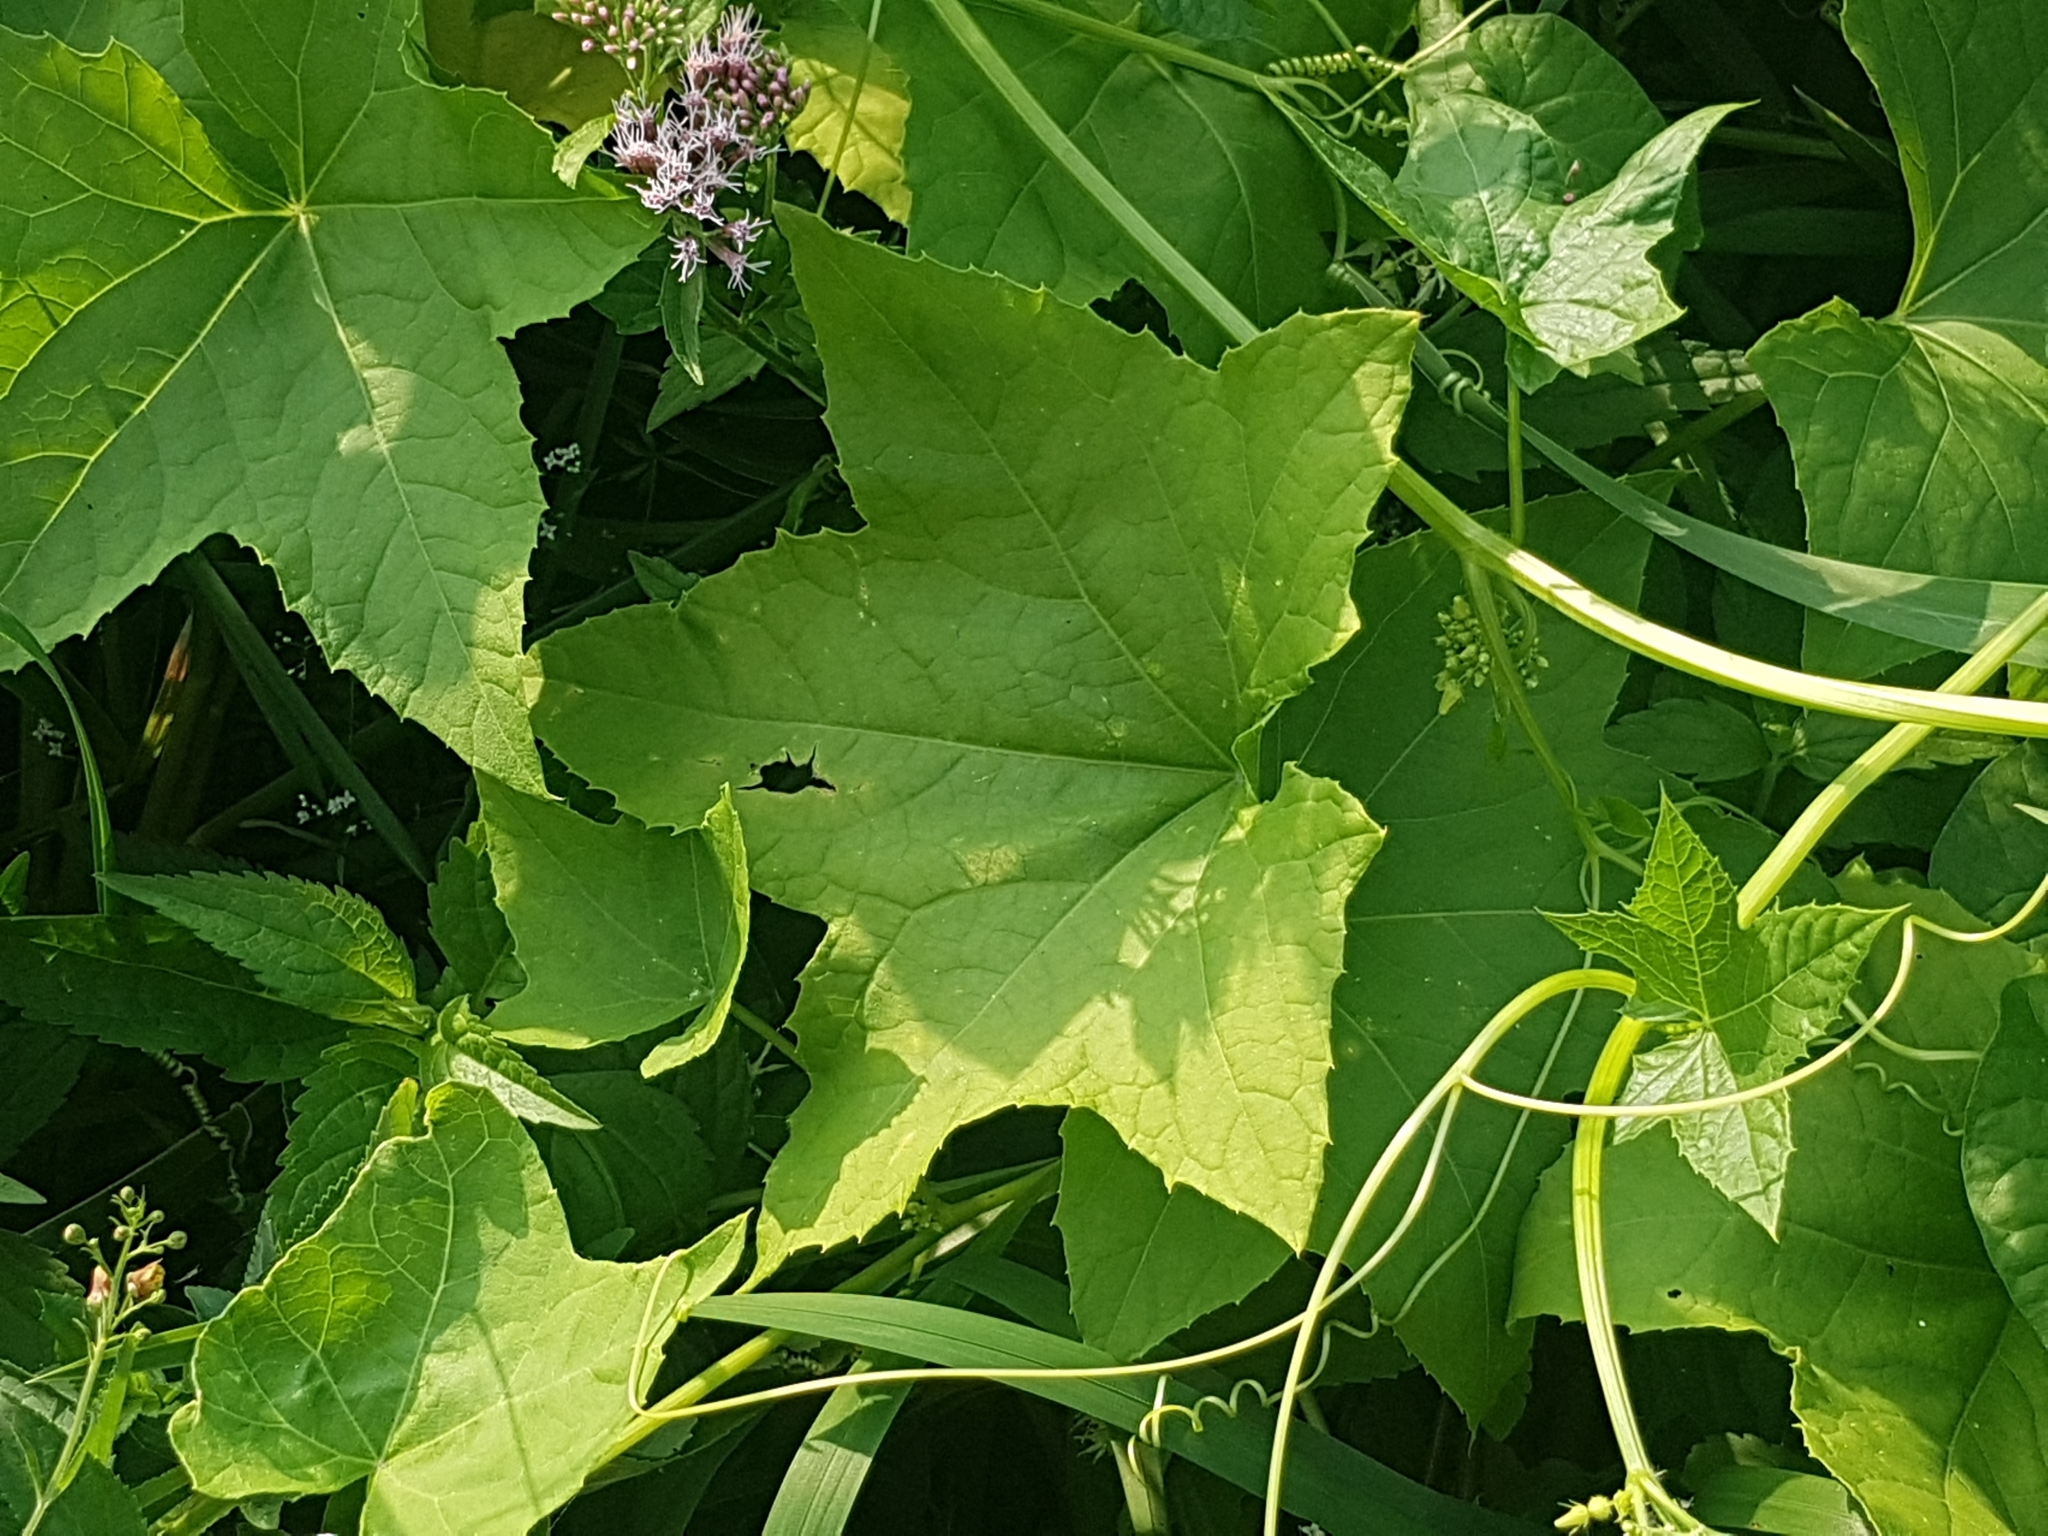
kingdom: Plantae
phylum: Tracheophyta
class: Magnoliopsida
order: Cucurbitales
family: Cucurbitaceae
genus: Echinocystis
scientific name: Echinocystis lobata
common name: Wild cucumber
